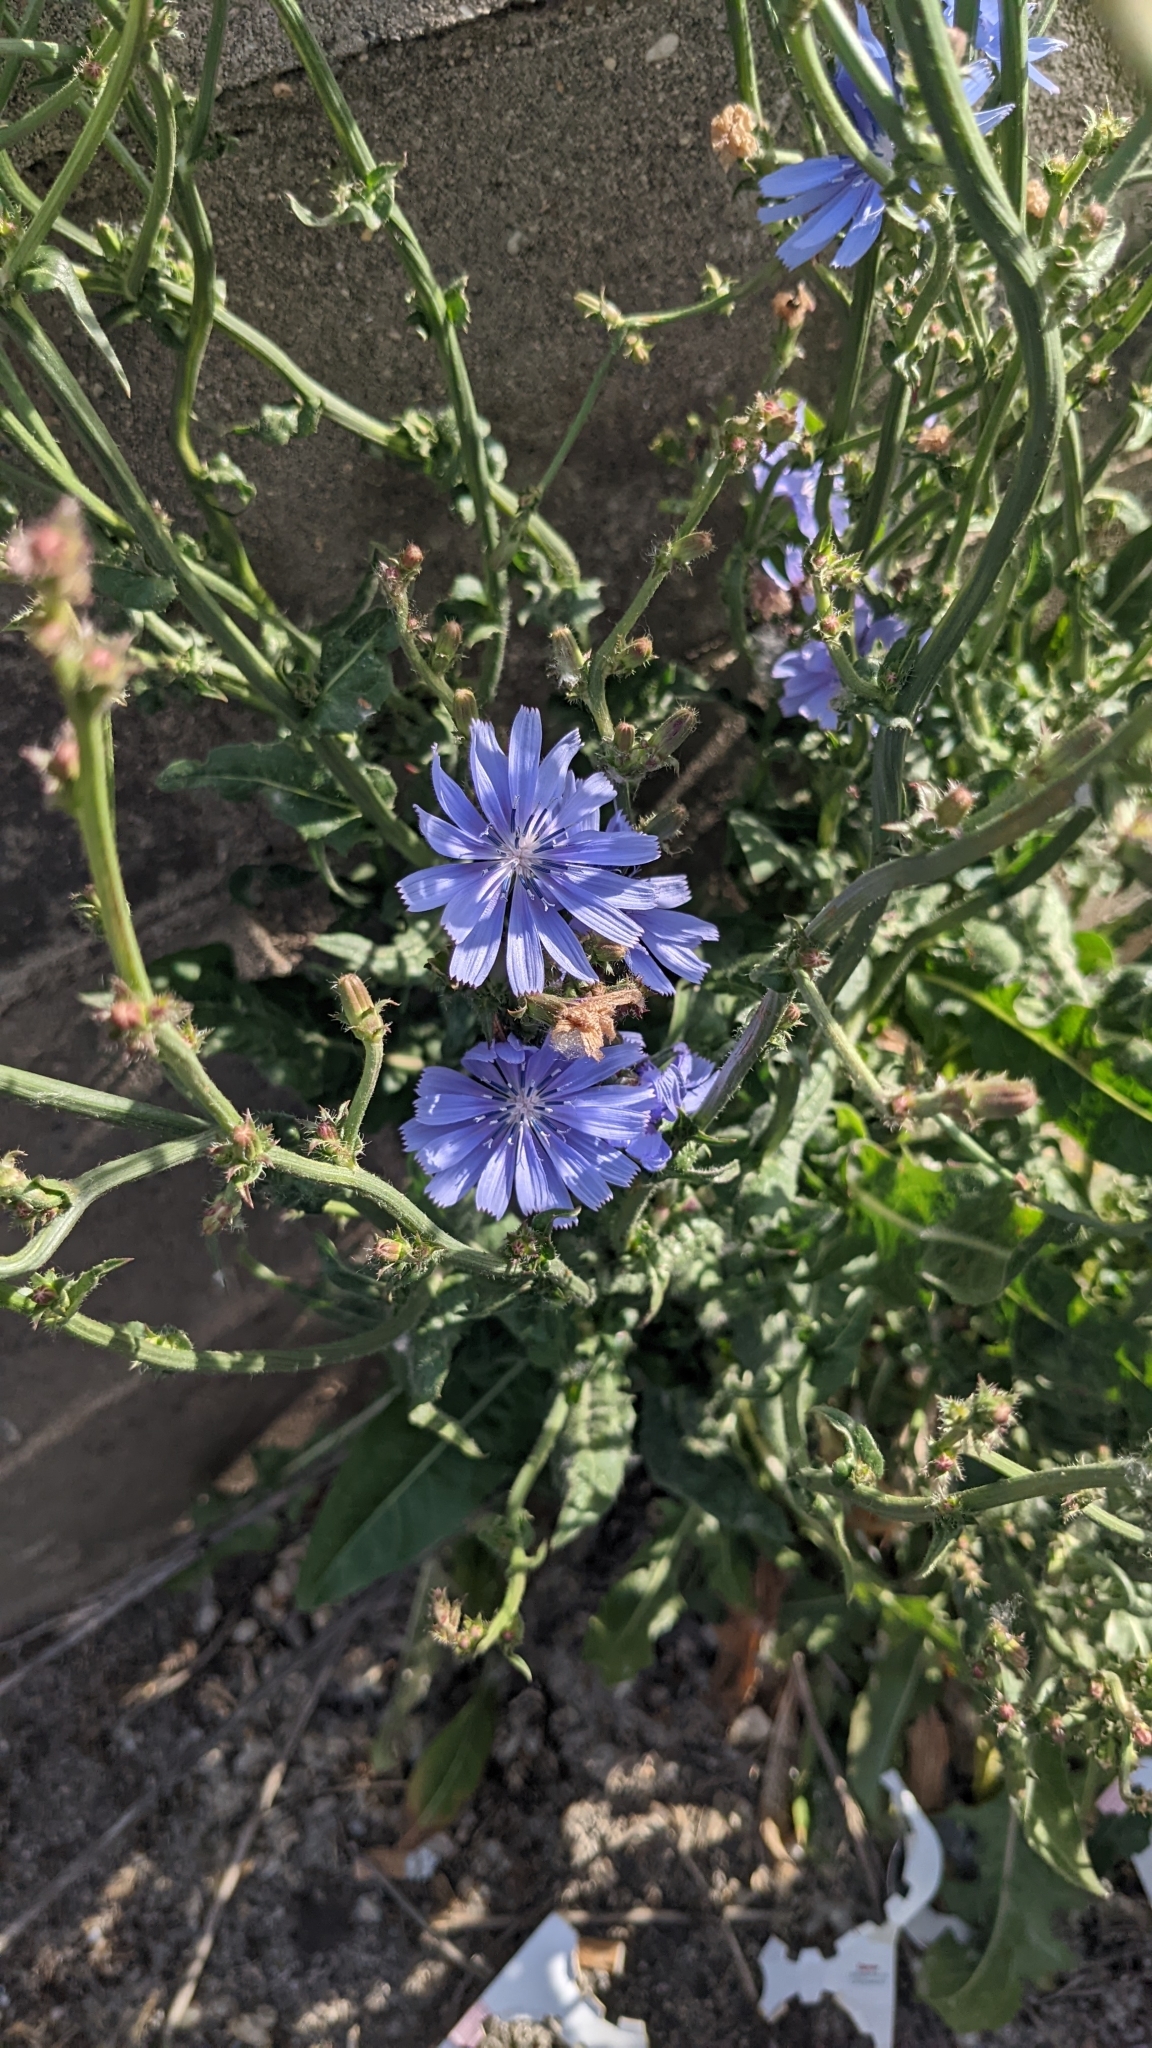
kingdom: Plantae
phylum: Tracheophyta
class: Magnoliopsida
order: Asterales
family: Asteraceae
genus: Cichorium
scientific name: Cichorium intybus
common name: Chicory
